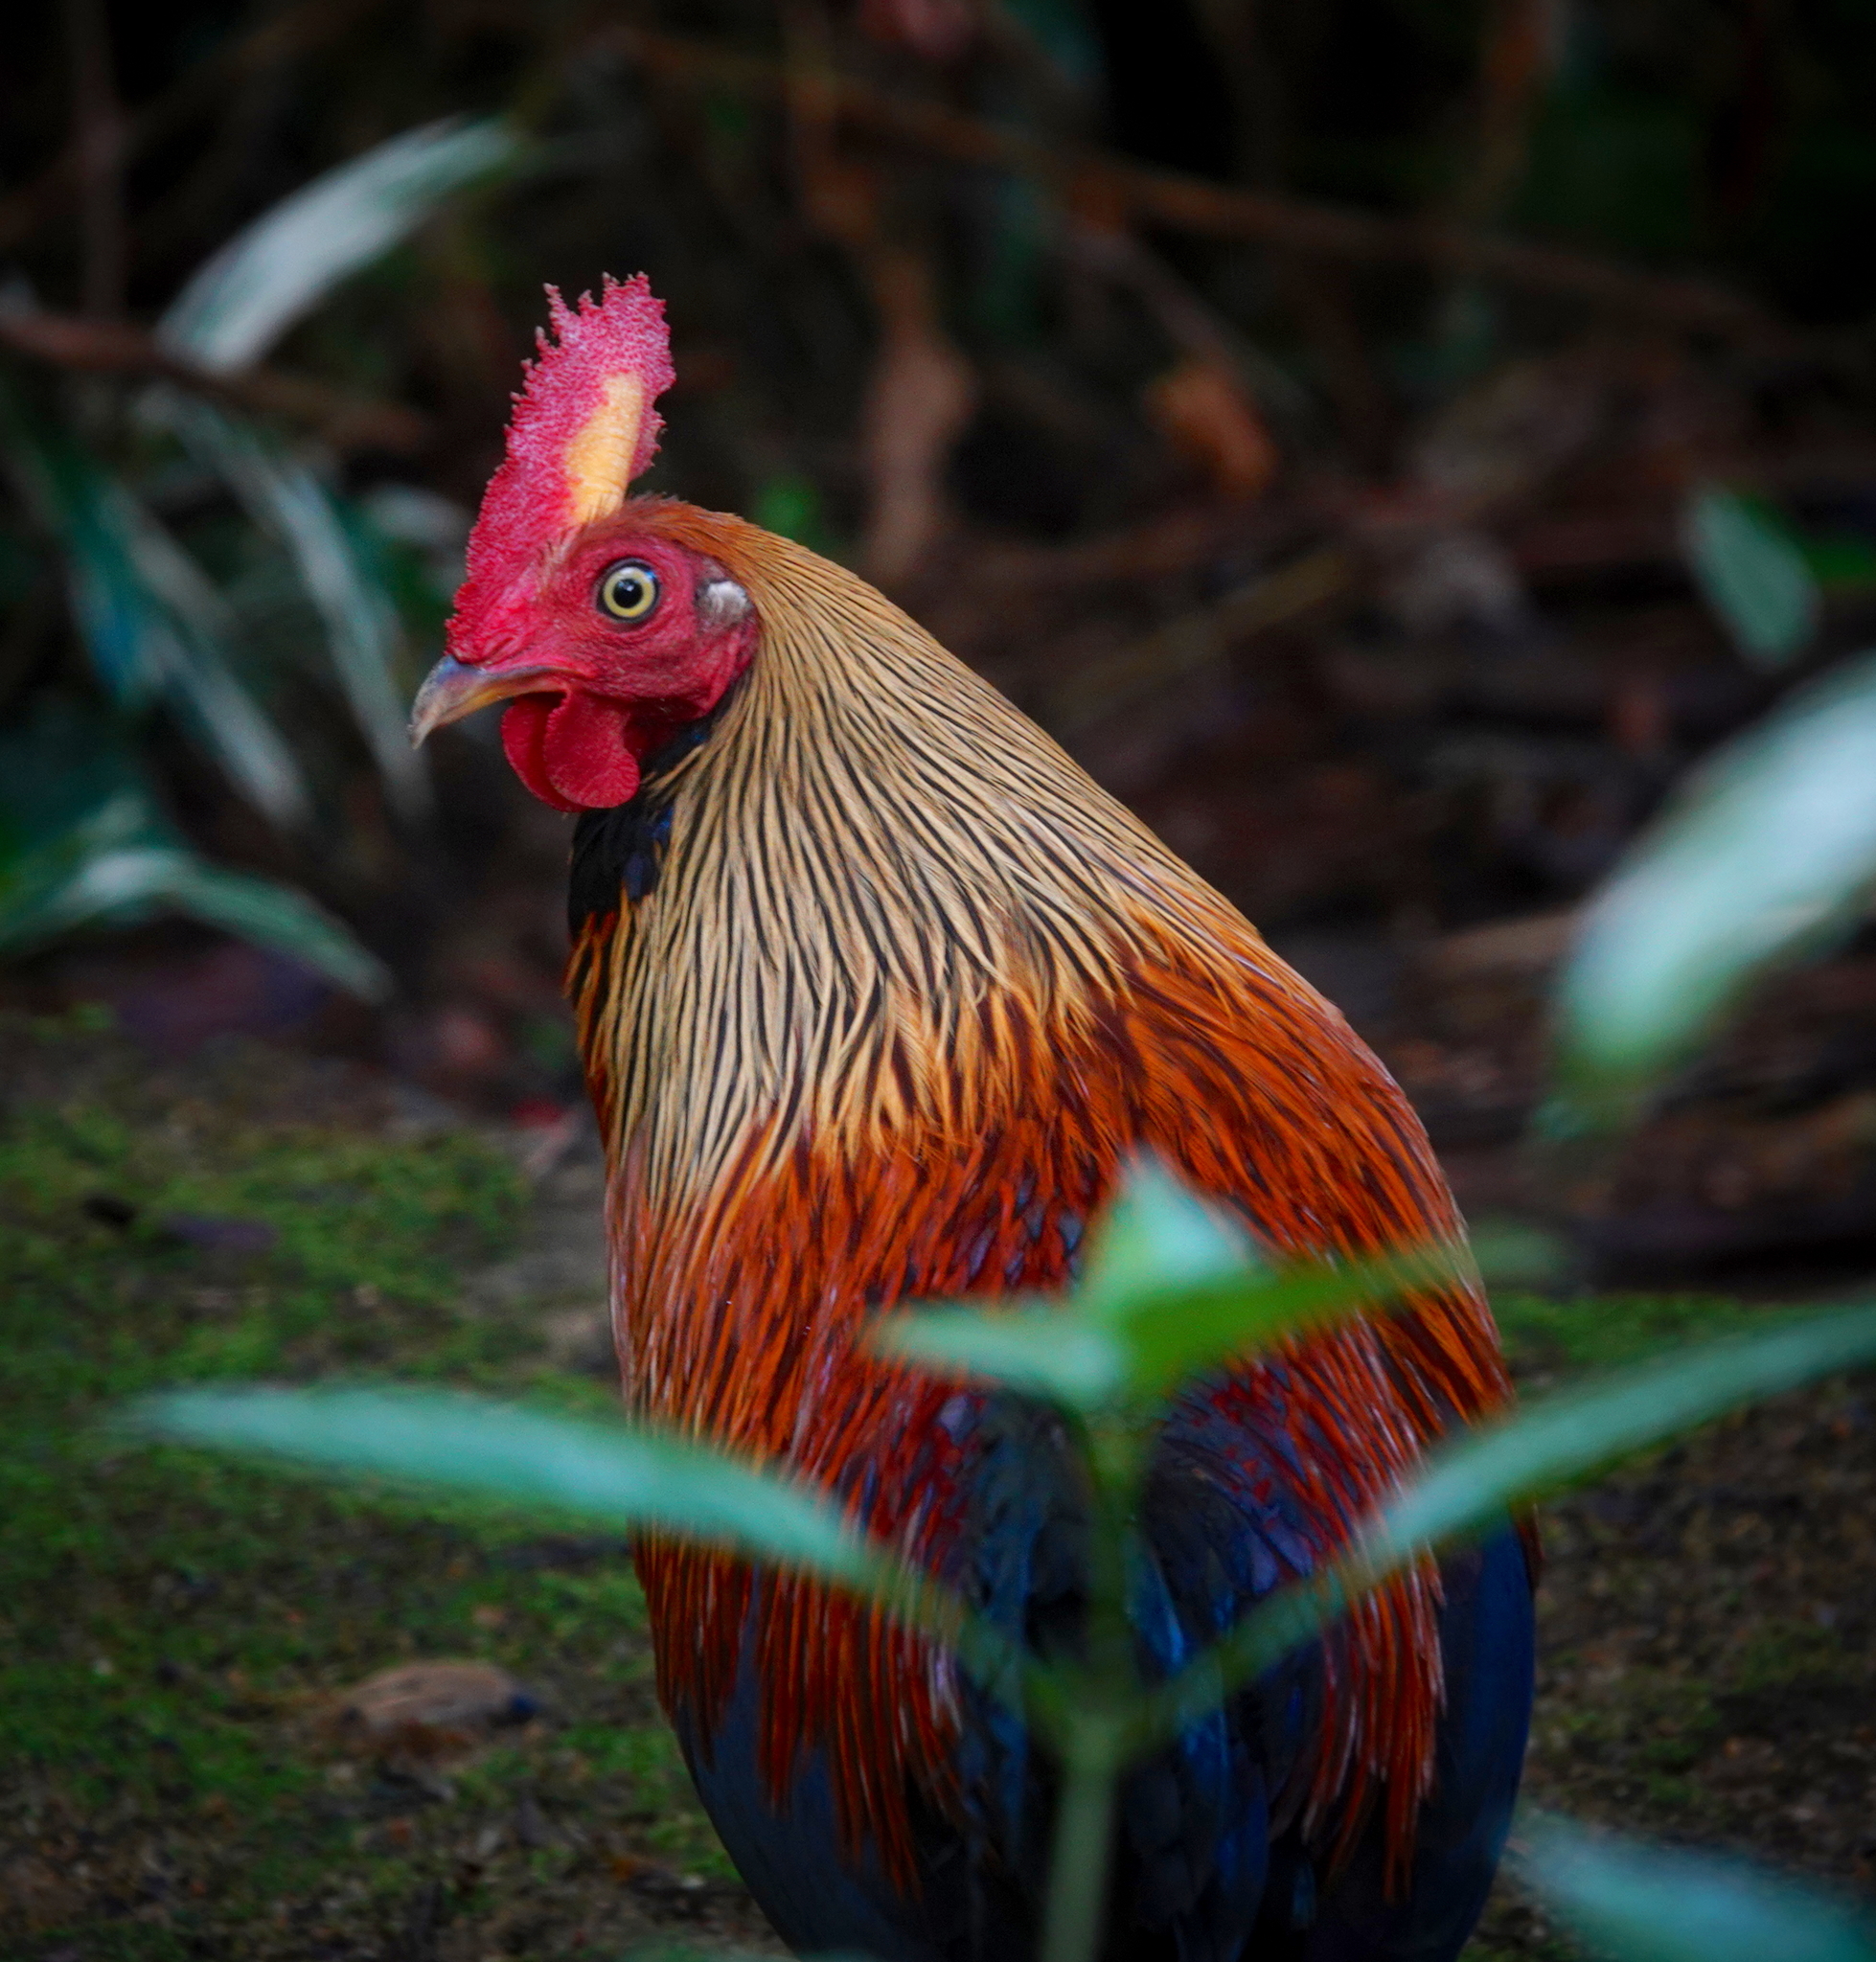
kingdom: Animalia
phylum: Chordata
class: Aves
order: Galliformes
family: Phasianidae
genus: Gallus
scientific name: Gallus lafayettii
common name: Sri lanka junglefowl
